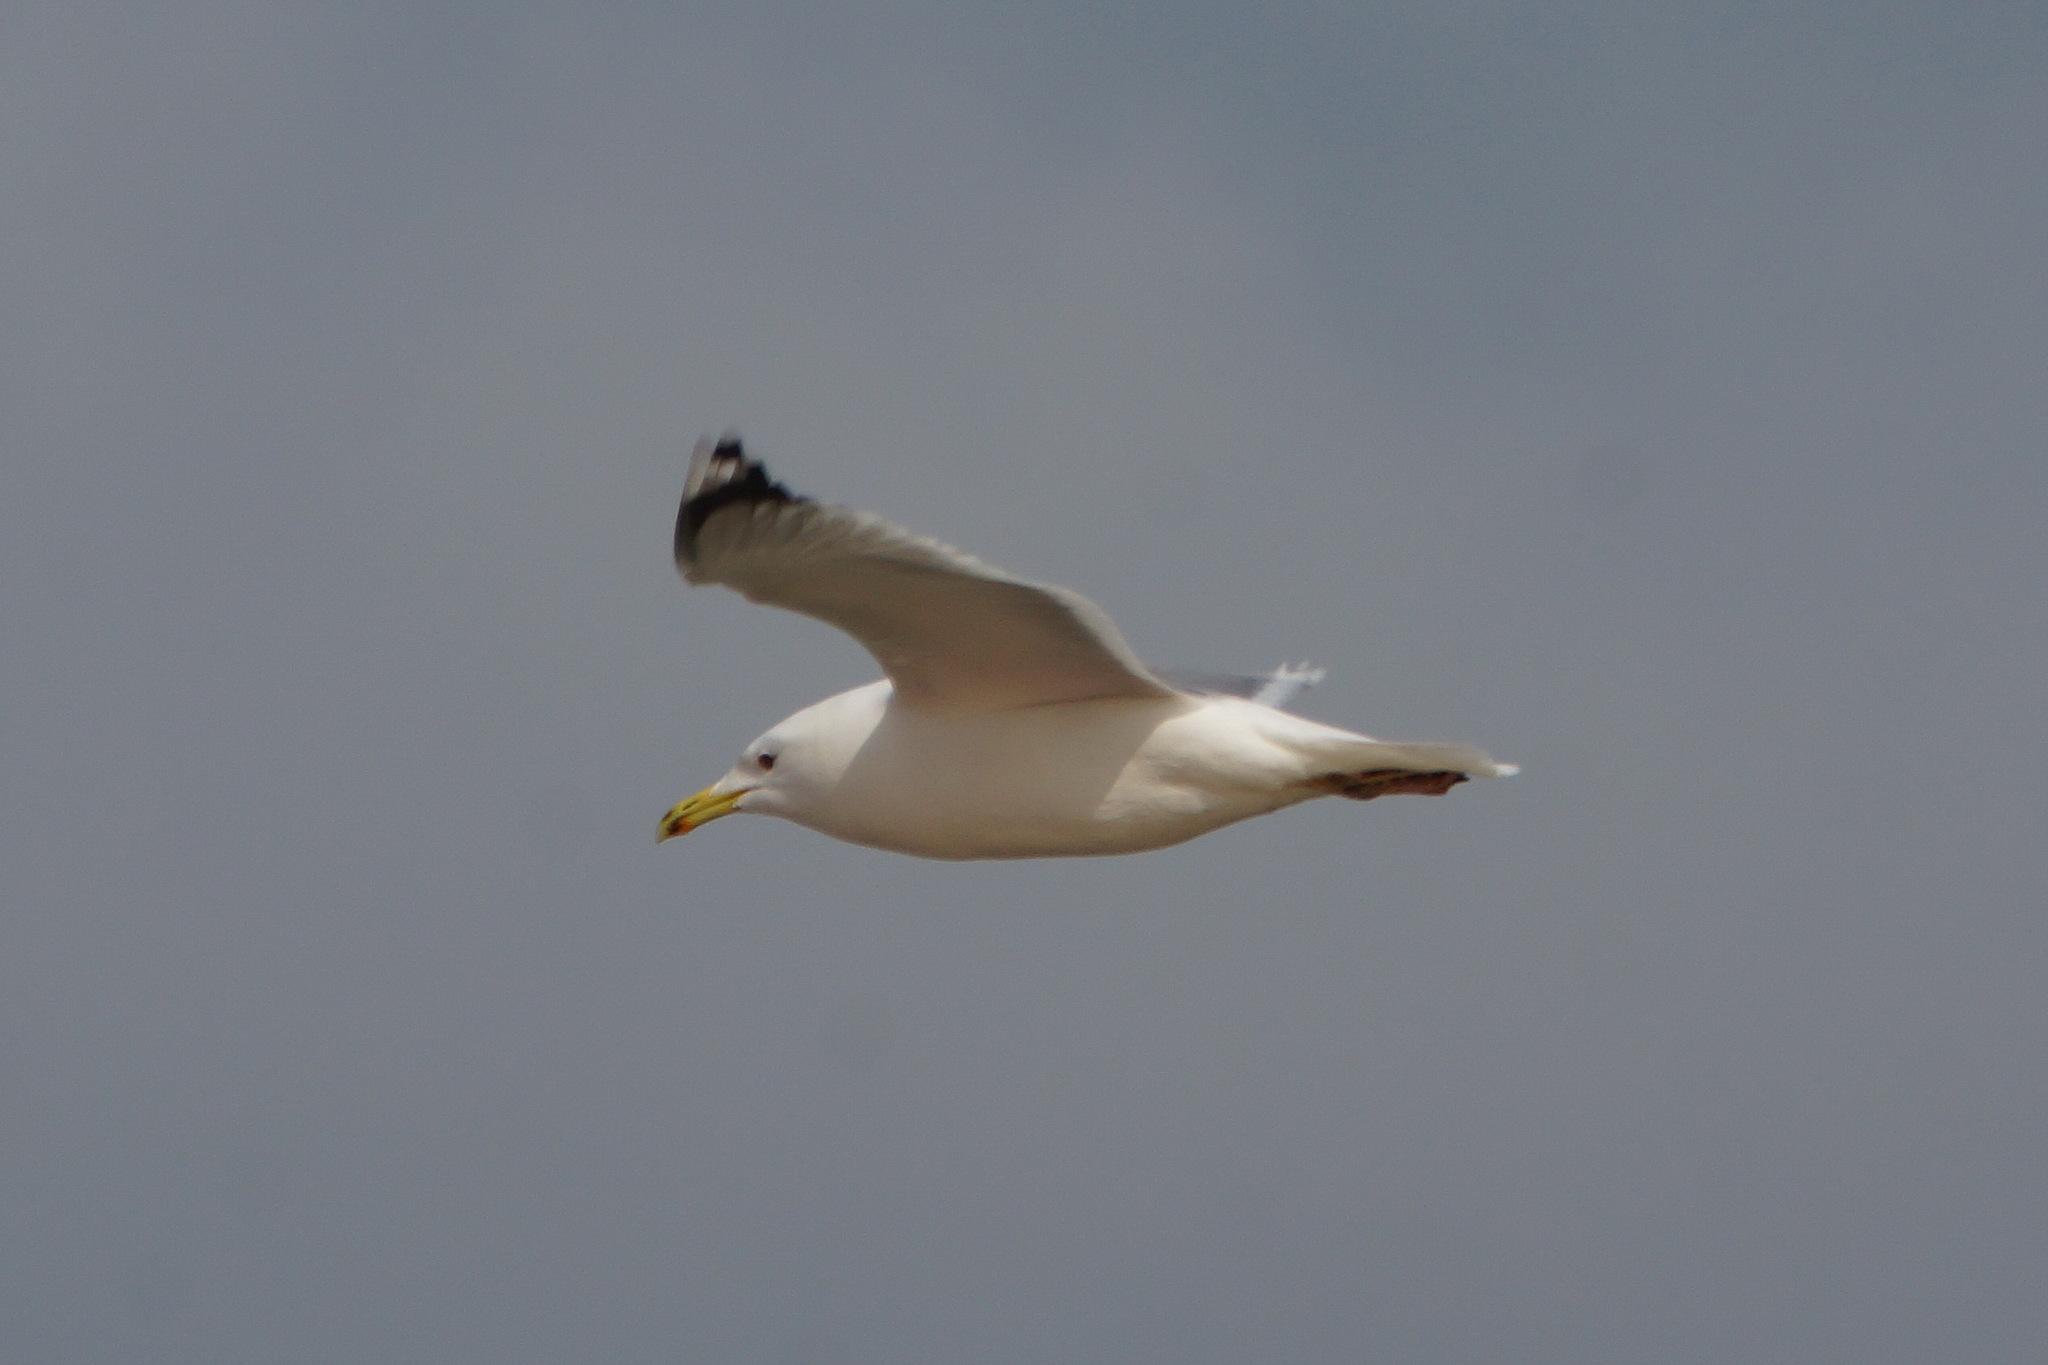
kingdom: Animalia
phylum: Chordata
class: Aves
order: Charadriiformes
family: Laridae
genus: Larus
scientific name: Larus cachinnans
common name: Caspian gull
